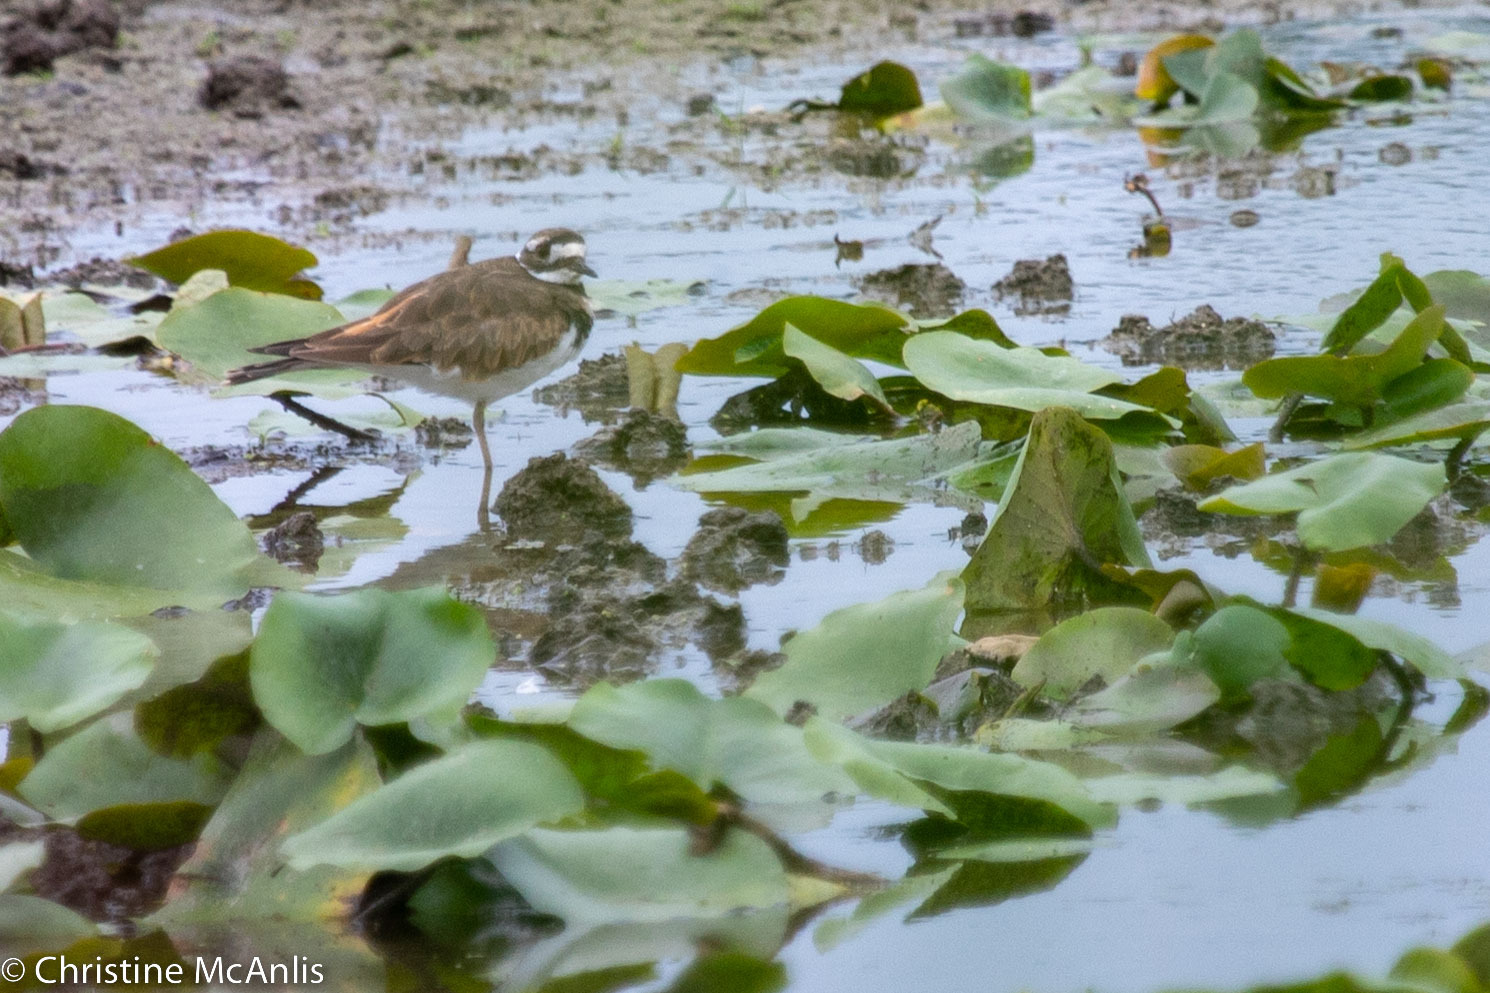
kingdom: Animalia
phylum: Chordata
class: Aves
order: Charadriiformes
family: Charadriidae
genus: Charadrius
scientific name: Charadrius vociferus
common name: Killdeer
